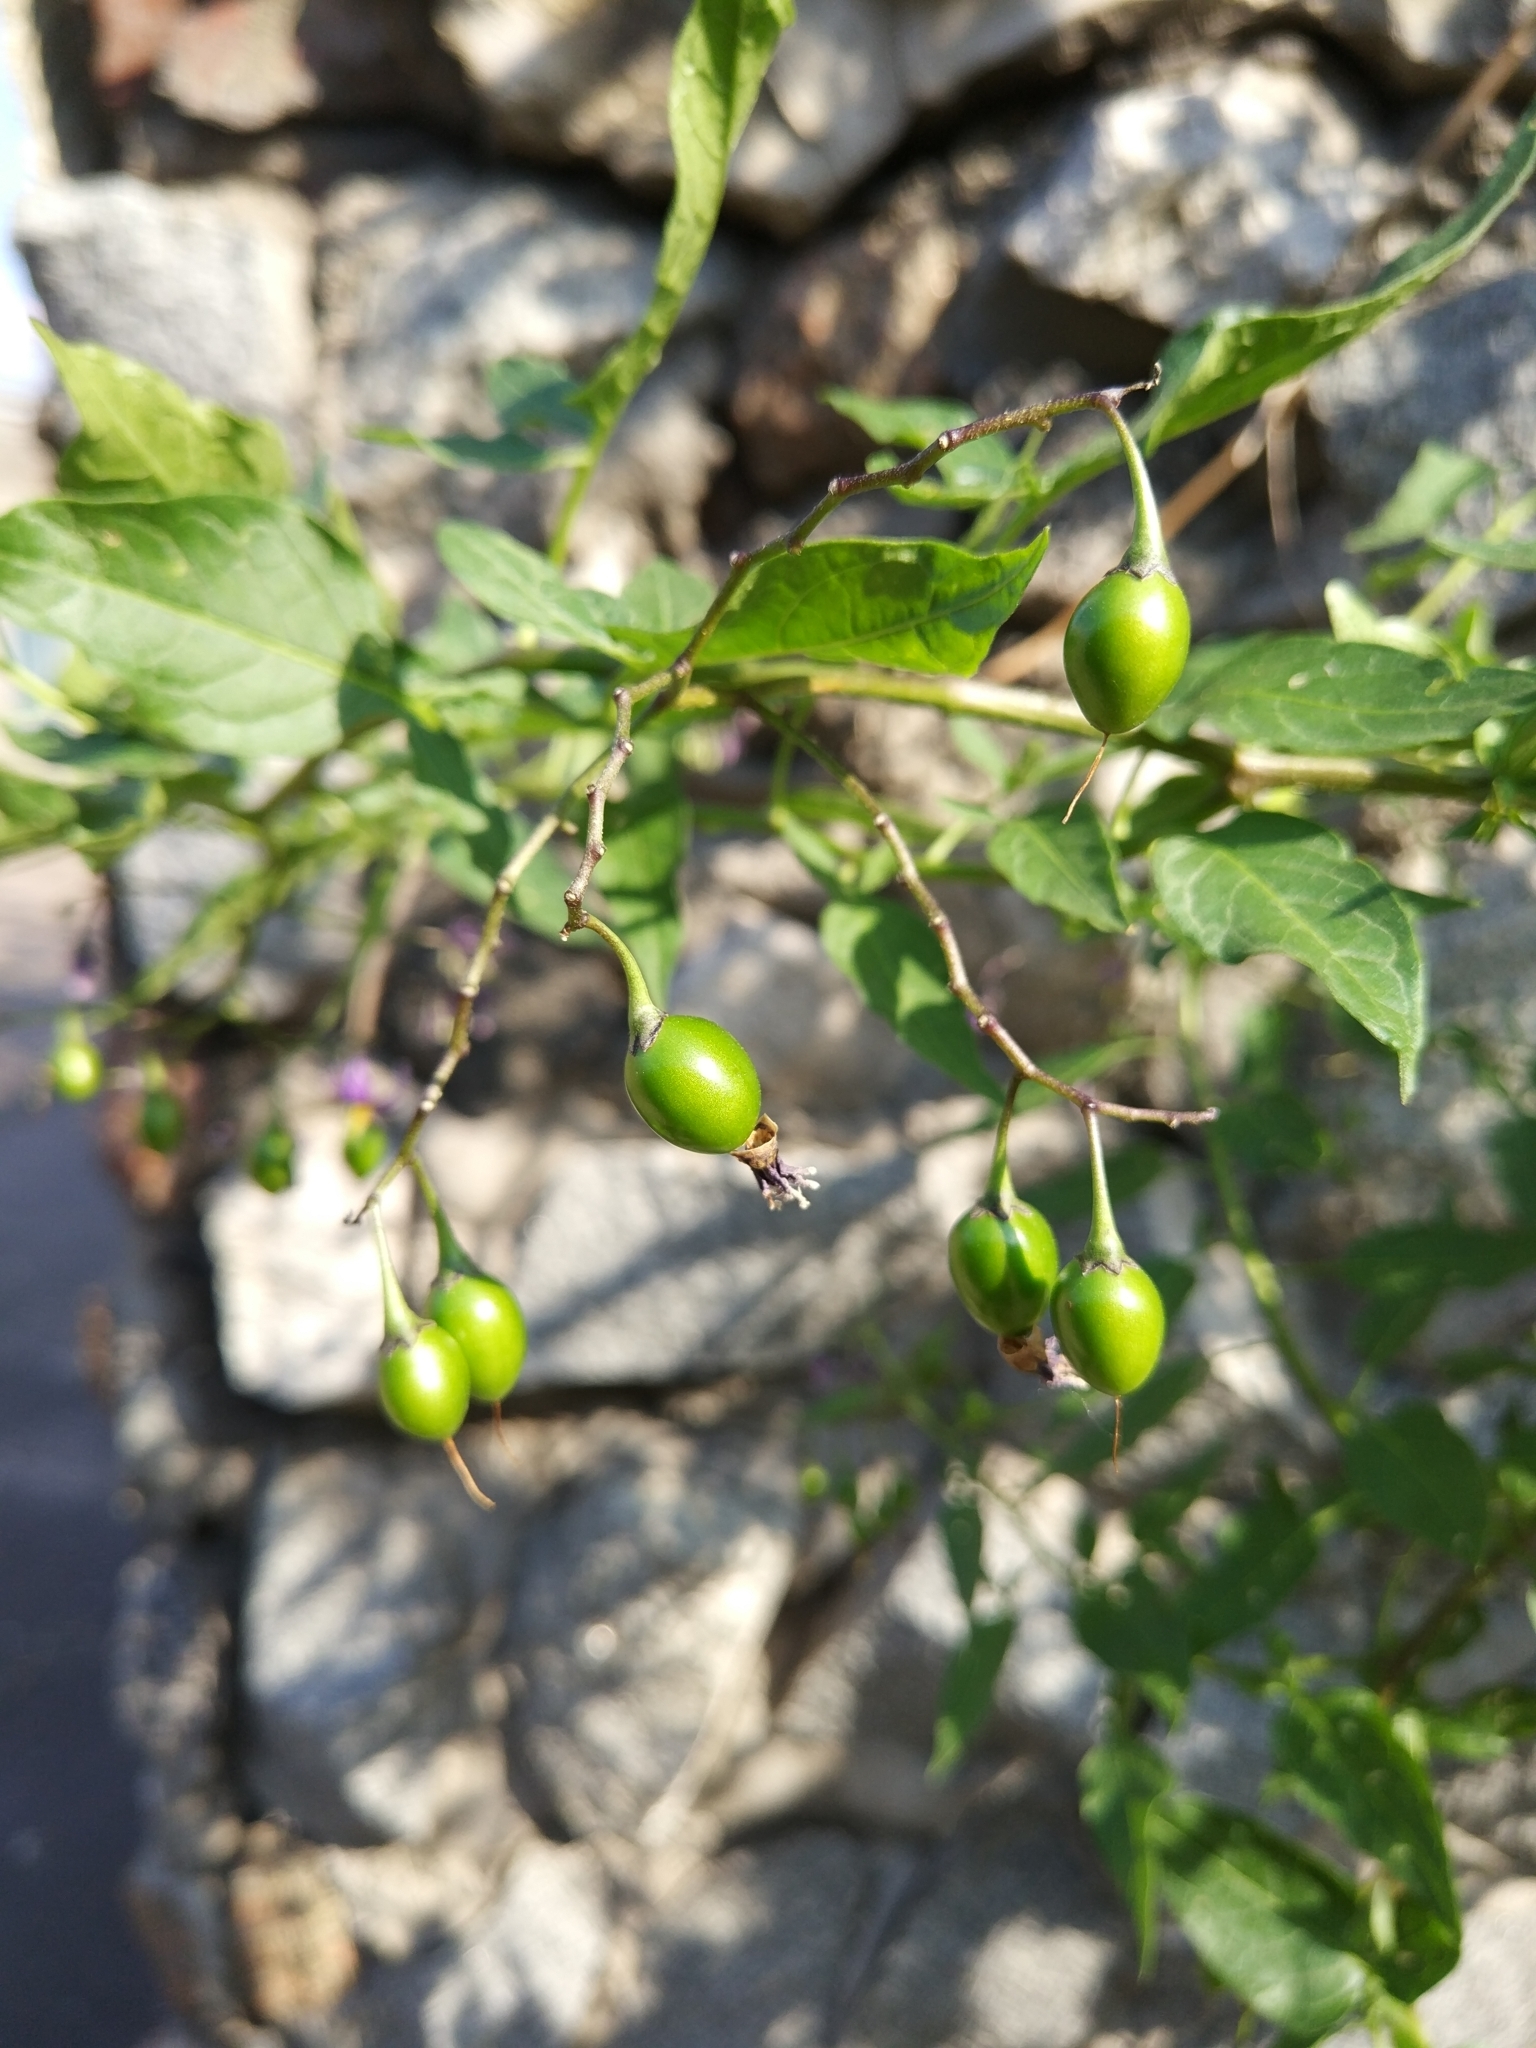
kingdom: Plantae
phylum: Tracheophyta
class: Magnoliopsida
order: Solanales
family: Solanaceae
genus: Solanum
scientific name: Solanum dulcamara
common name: Climbing nightshade
